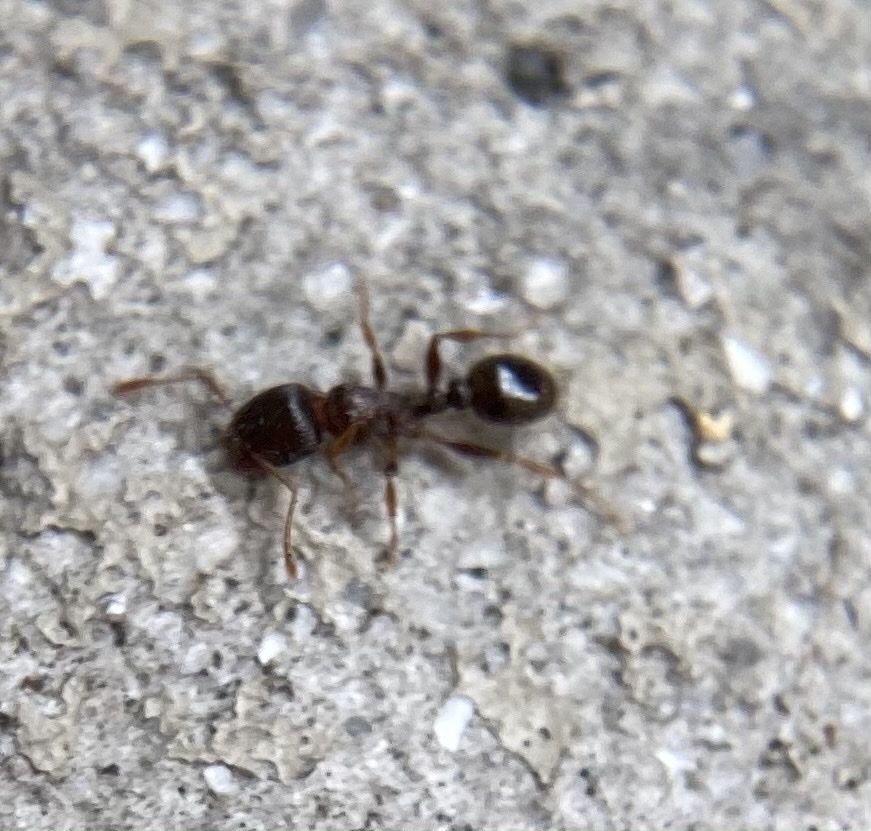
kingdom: Animalia
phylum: Arthropoda
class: Insecta
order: Hymenoptera
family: Formicidae
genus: Tetramorium
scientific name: Tetramorium immigrans
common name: Pavement ant
